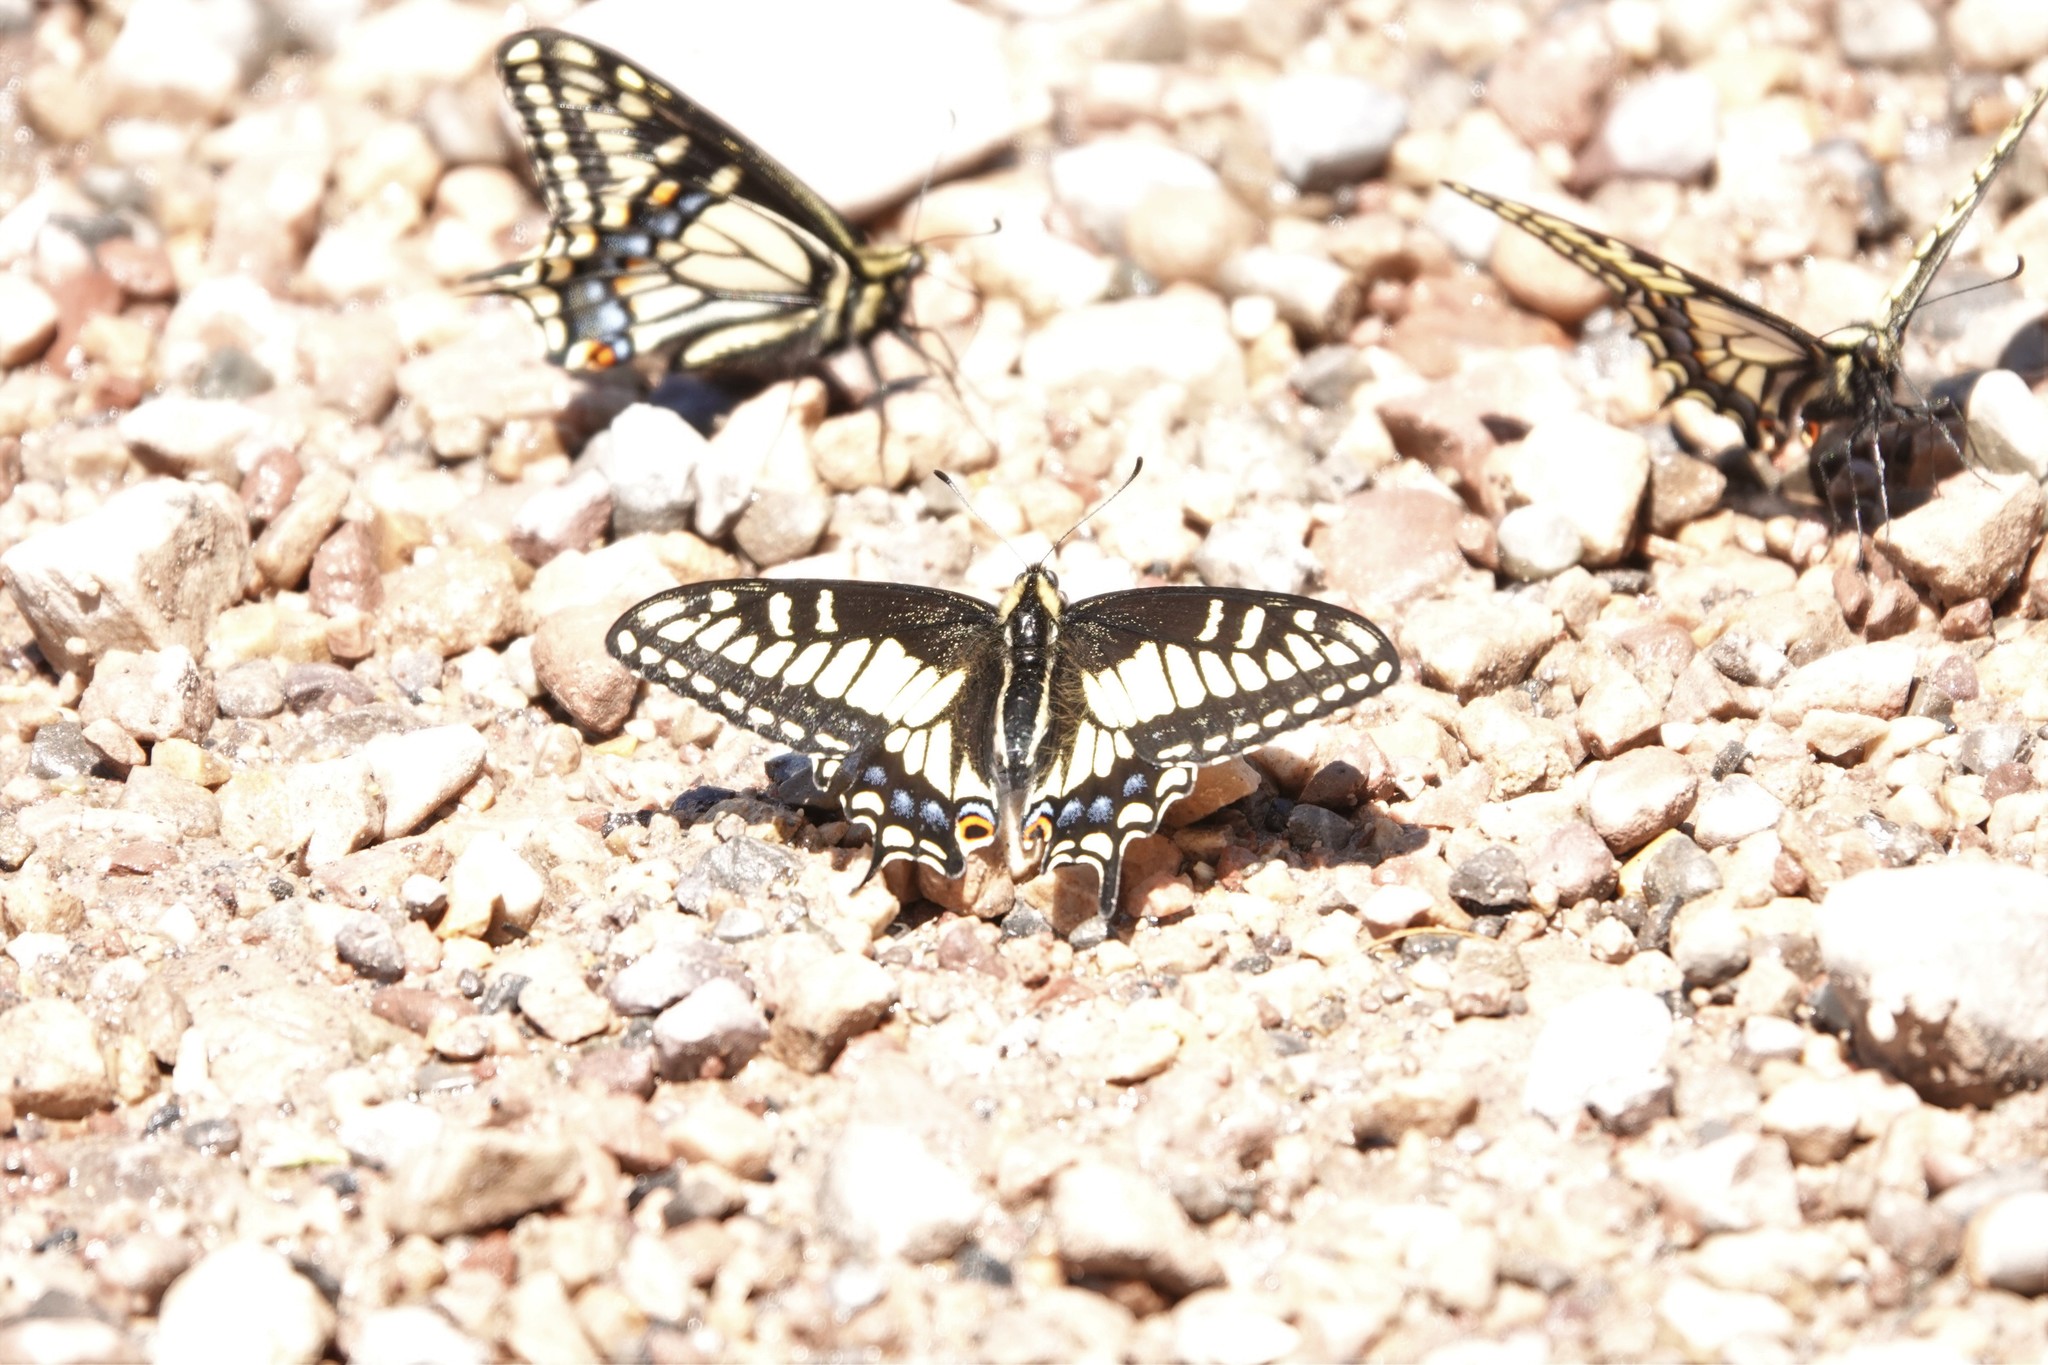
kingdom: Animalia
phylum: Arthropoda
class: Insecta
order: Lepidoptera
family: Papilionidae
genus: Papilio
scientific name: Papilio zelicaon
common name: Anise swallowtail
